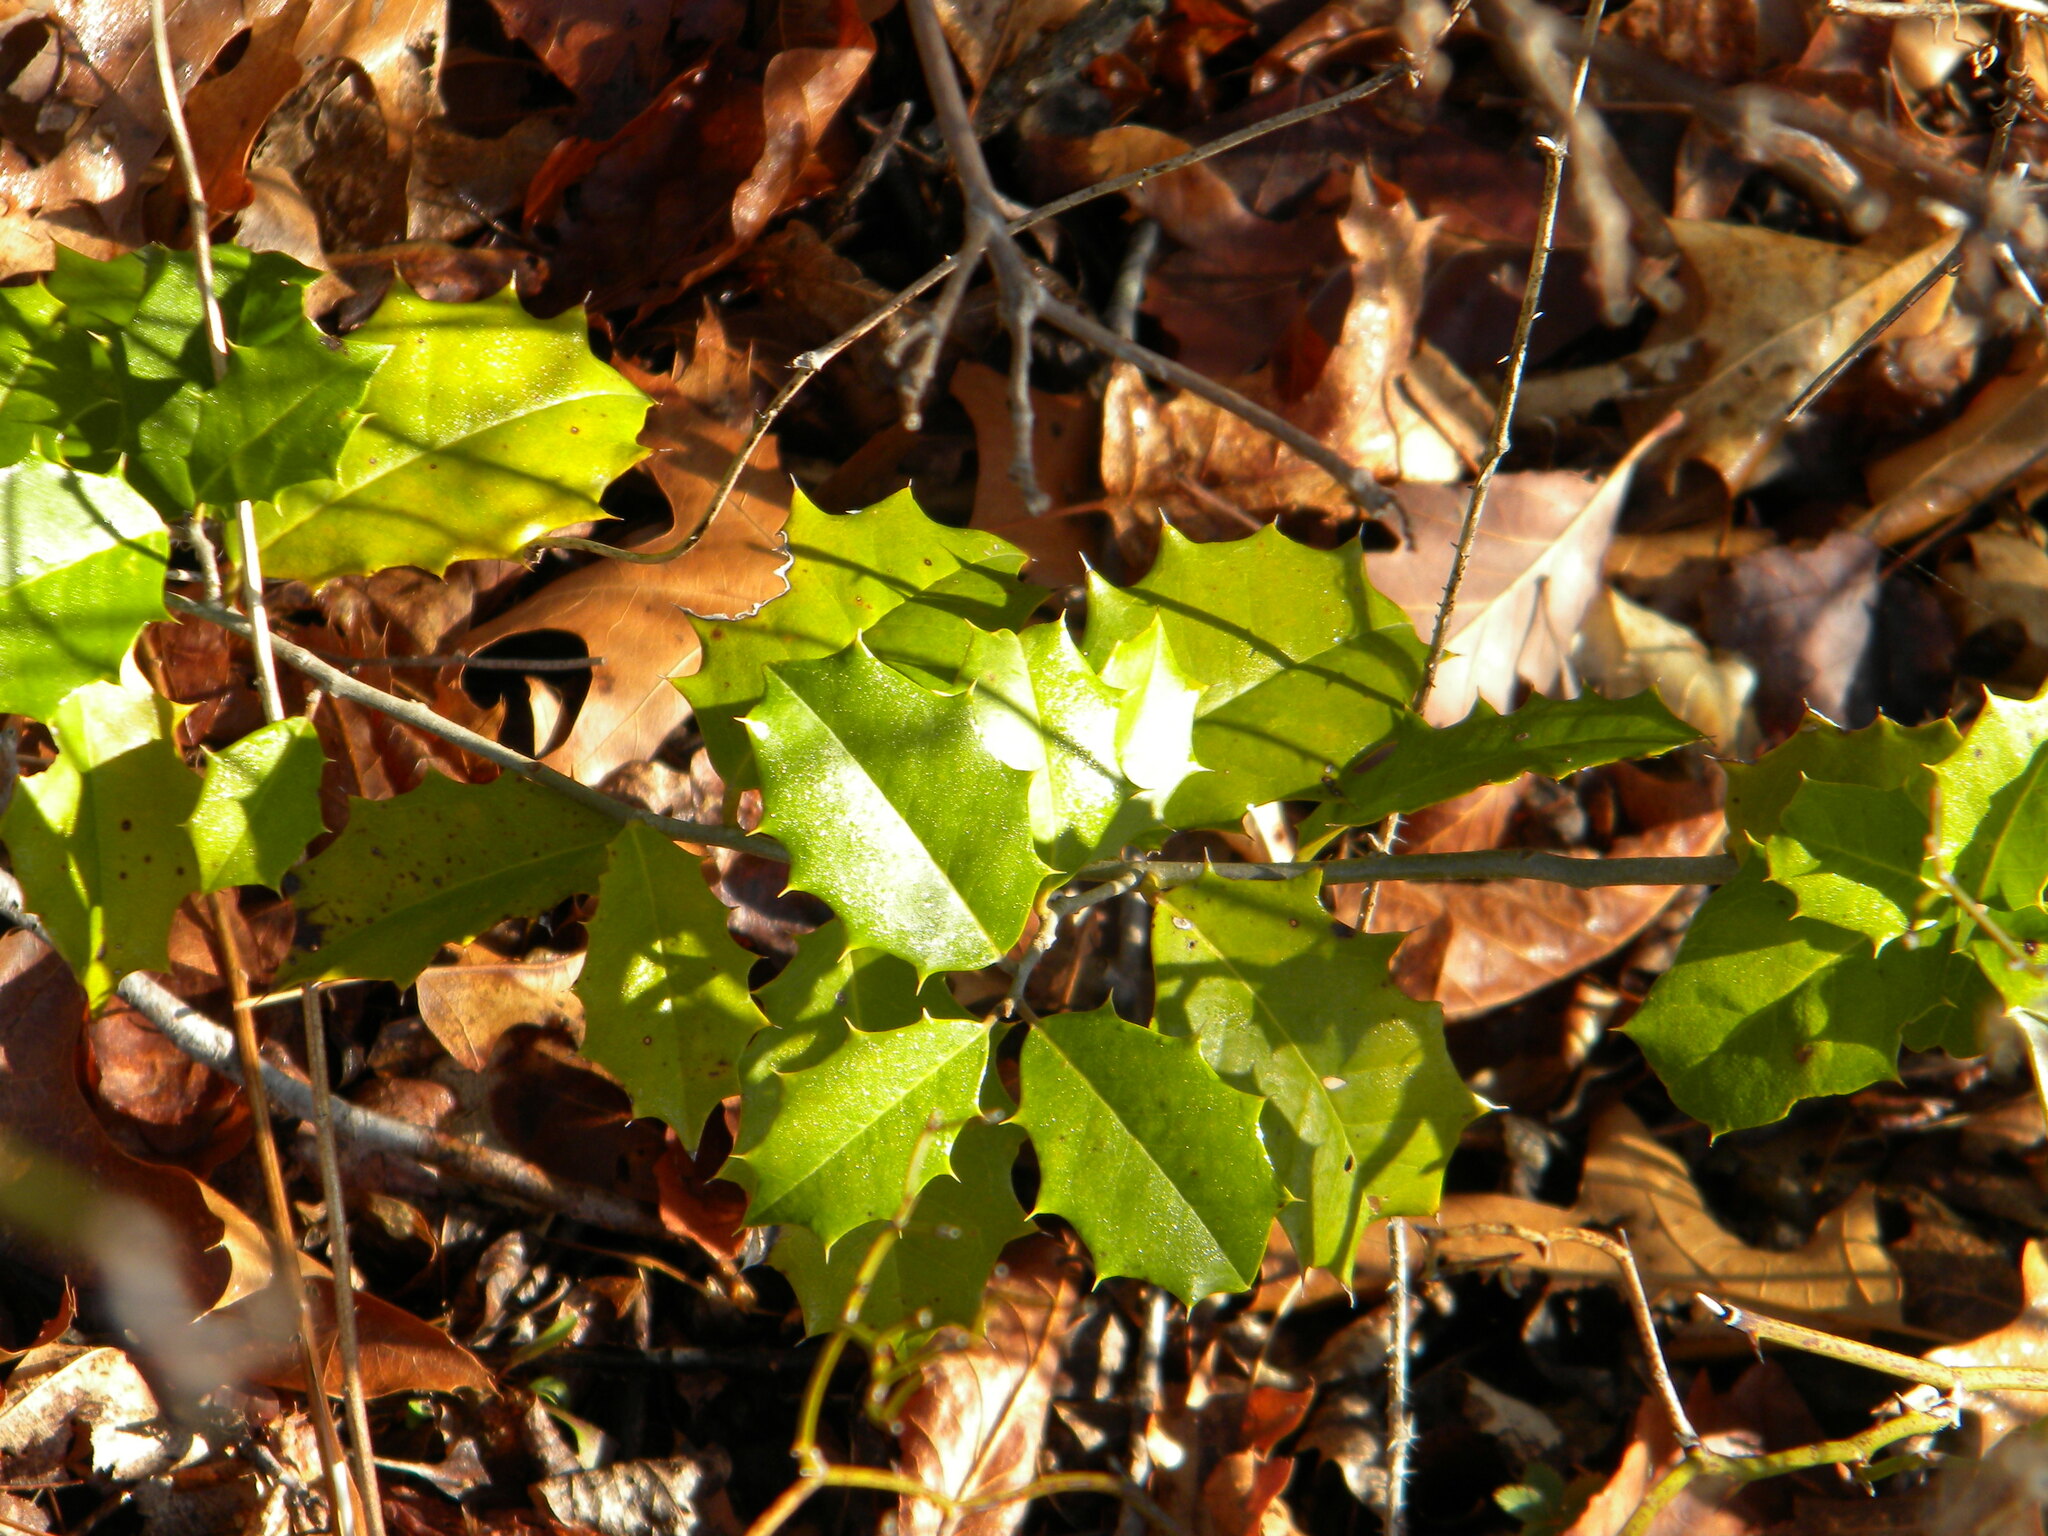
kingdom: Plantae
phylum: Tracheophyta
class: Magnoliopsida
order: Aquifoliales
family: Aquifoliaceae
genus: Ilex
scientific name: Ilex opaca
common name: American holly
